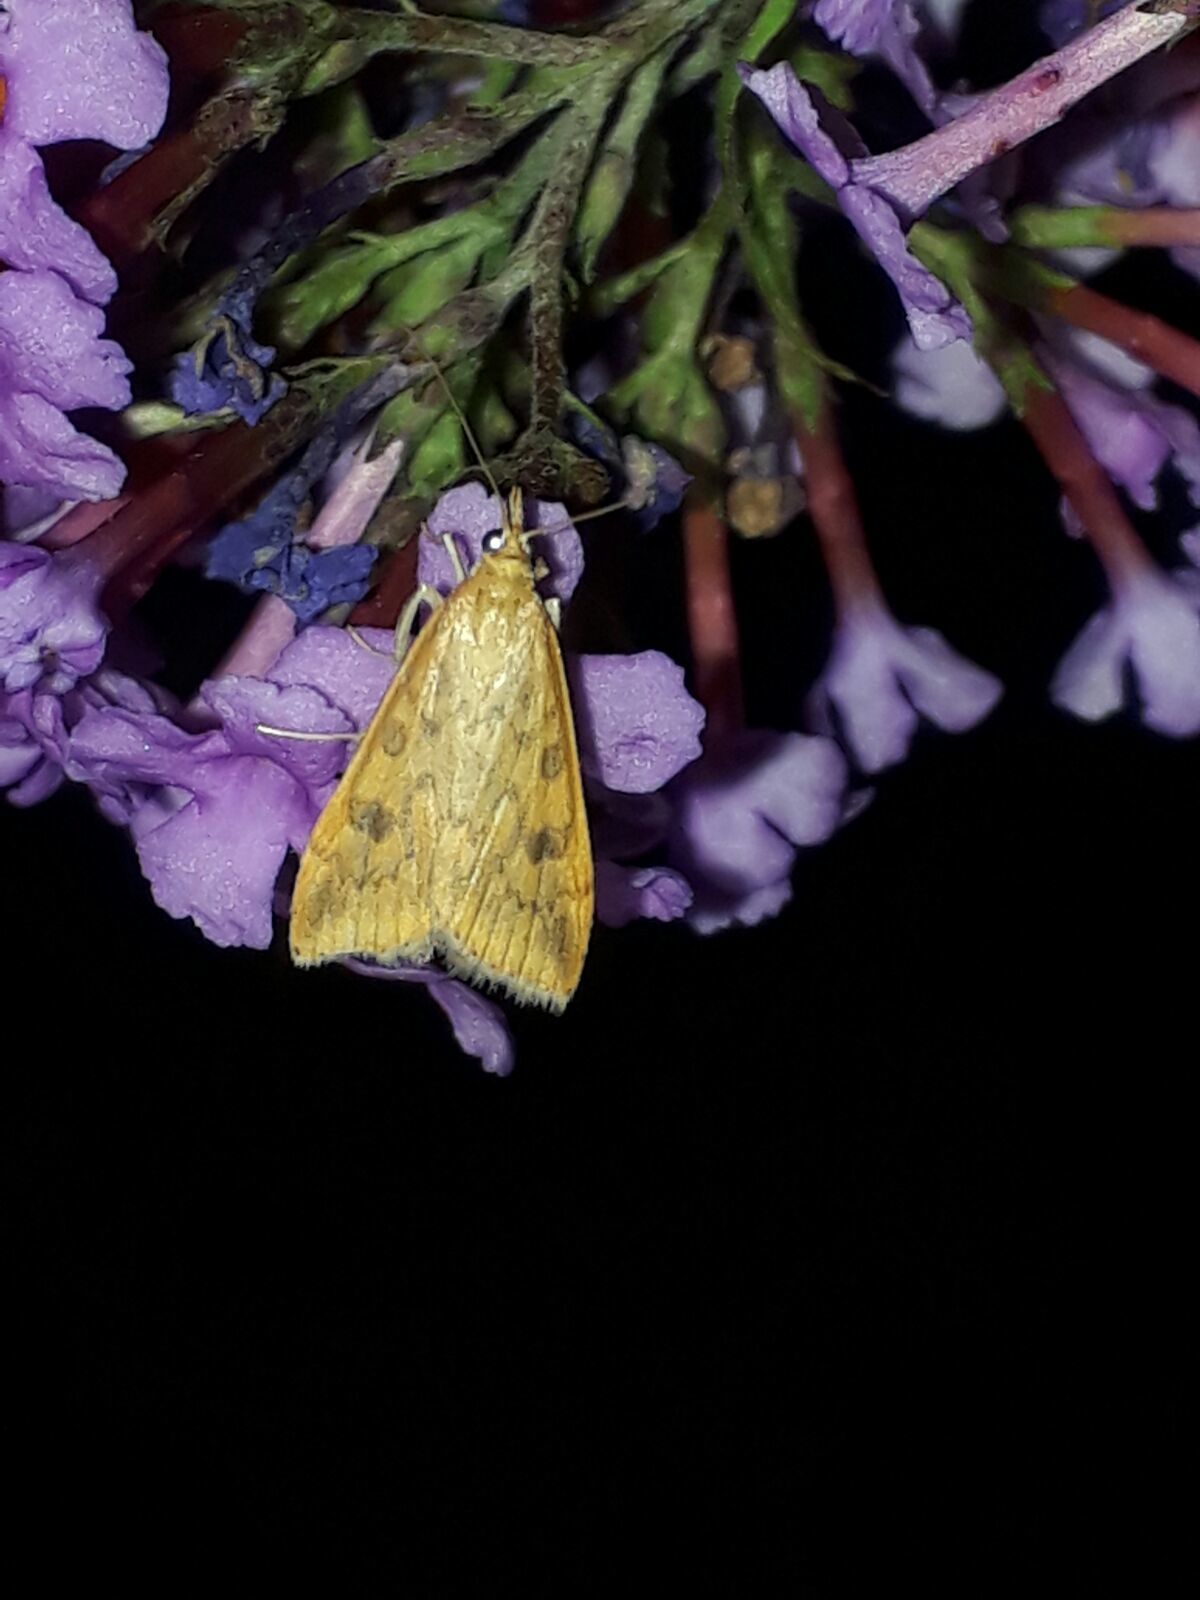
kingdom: Animalia
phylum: Arthropoda
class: Insecta
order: Lepidoptera
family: Crambidae
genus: Udea
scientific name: Udea ferrugalis
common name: Rusty dot
